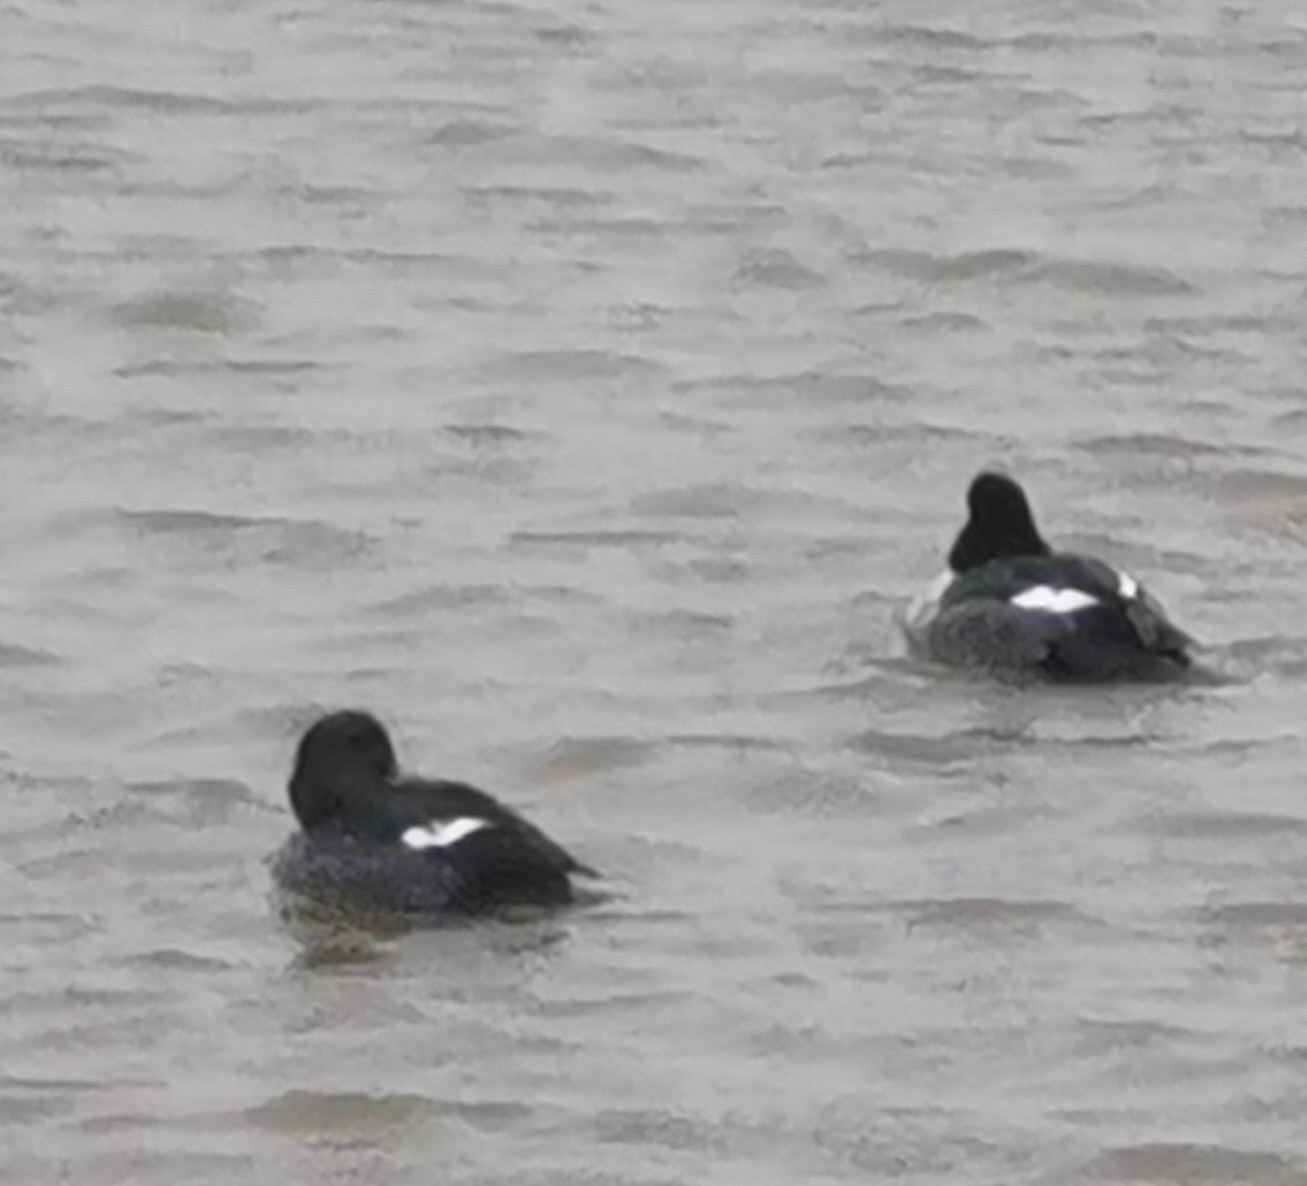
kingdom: Animalia
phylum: Chordata
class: Aves
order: Anseriformes
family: Anatidae
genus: Bucephala
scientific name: Bucephala clangula
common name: Common goldeneye
